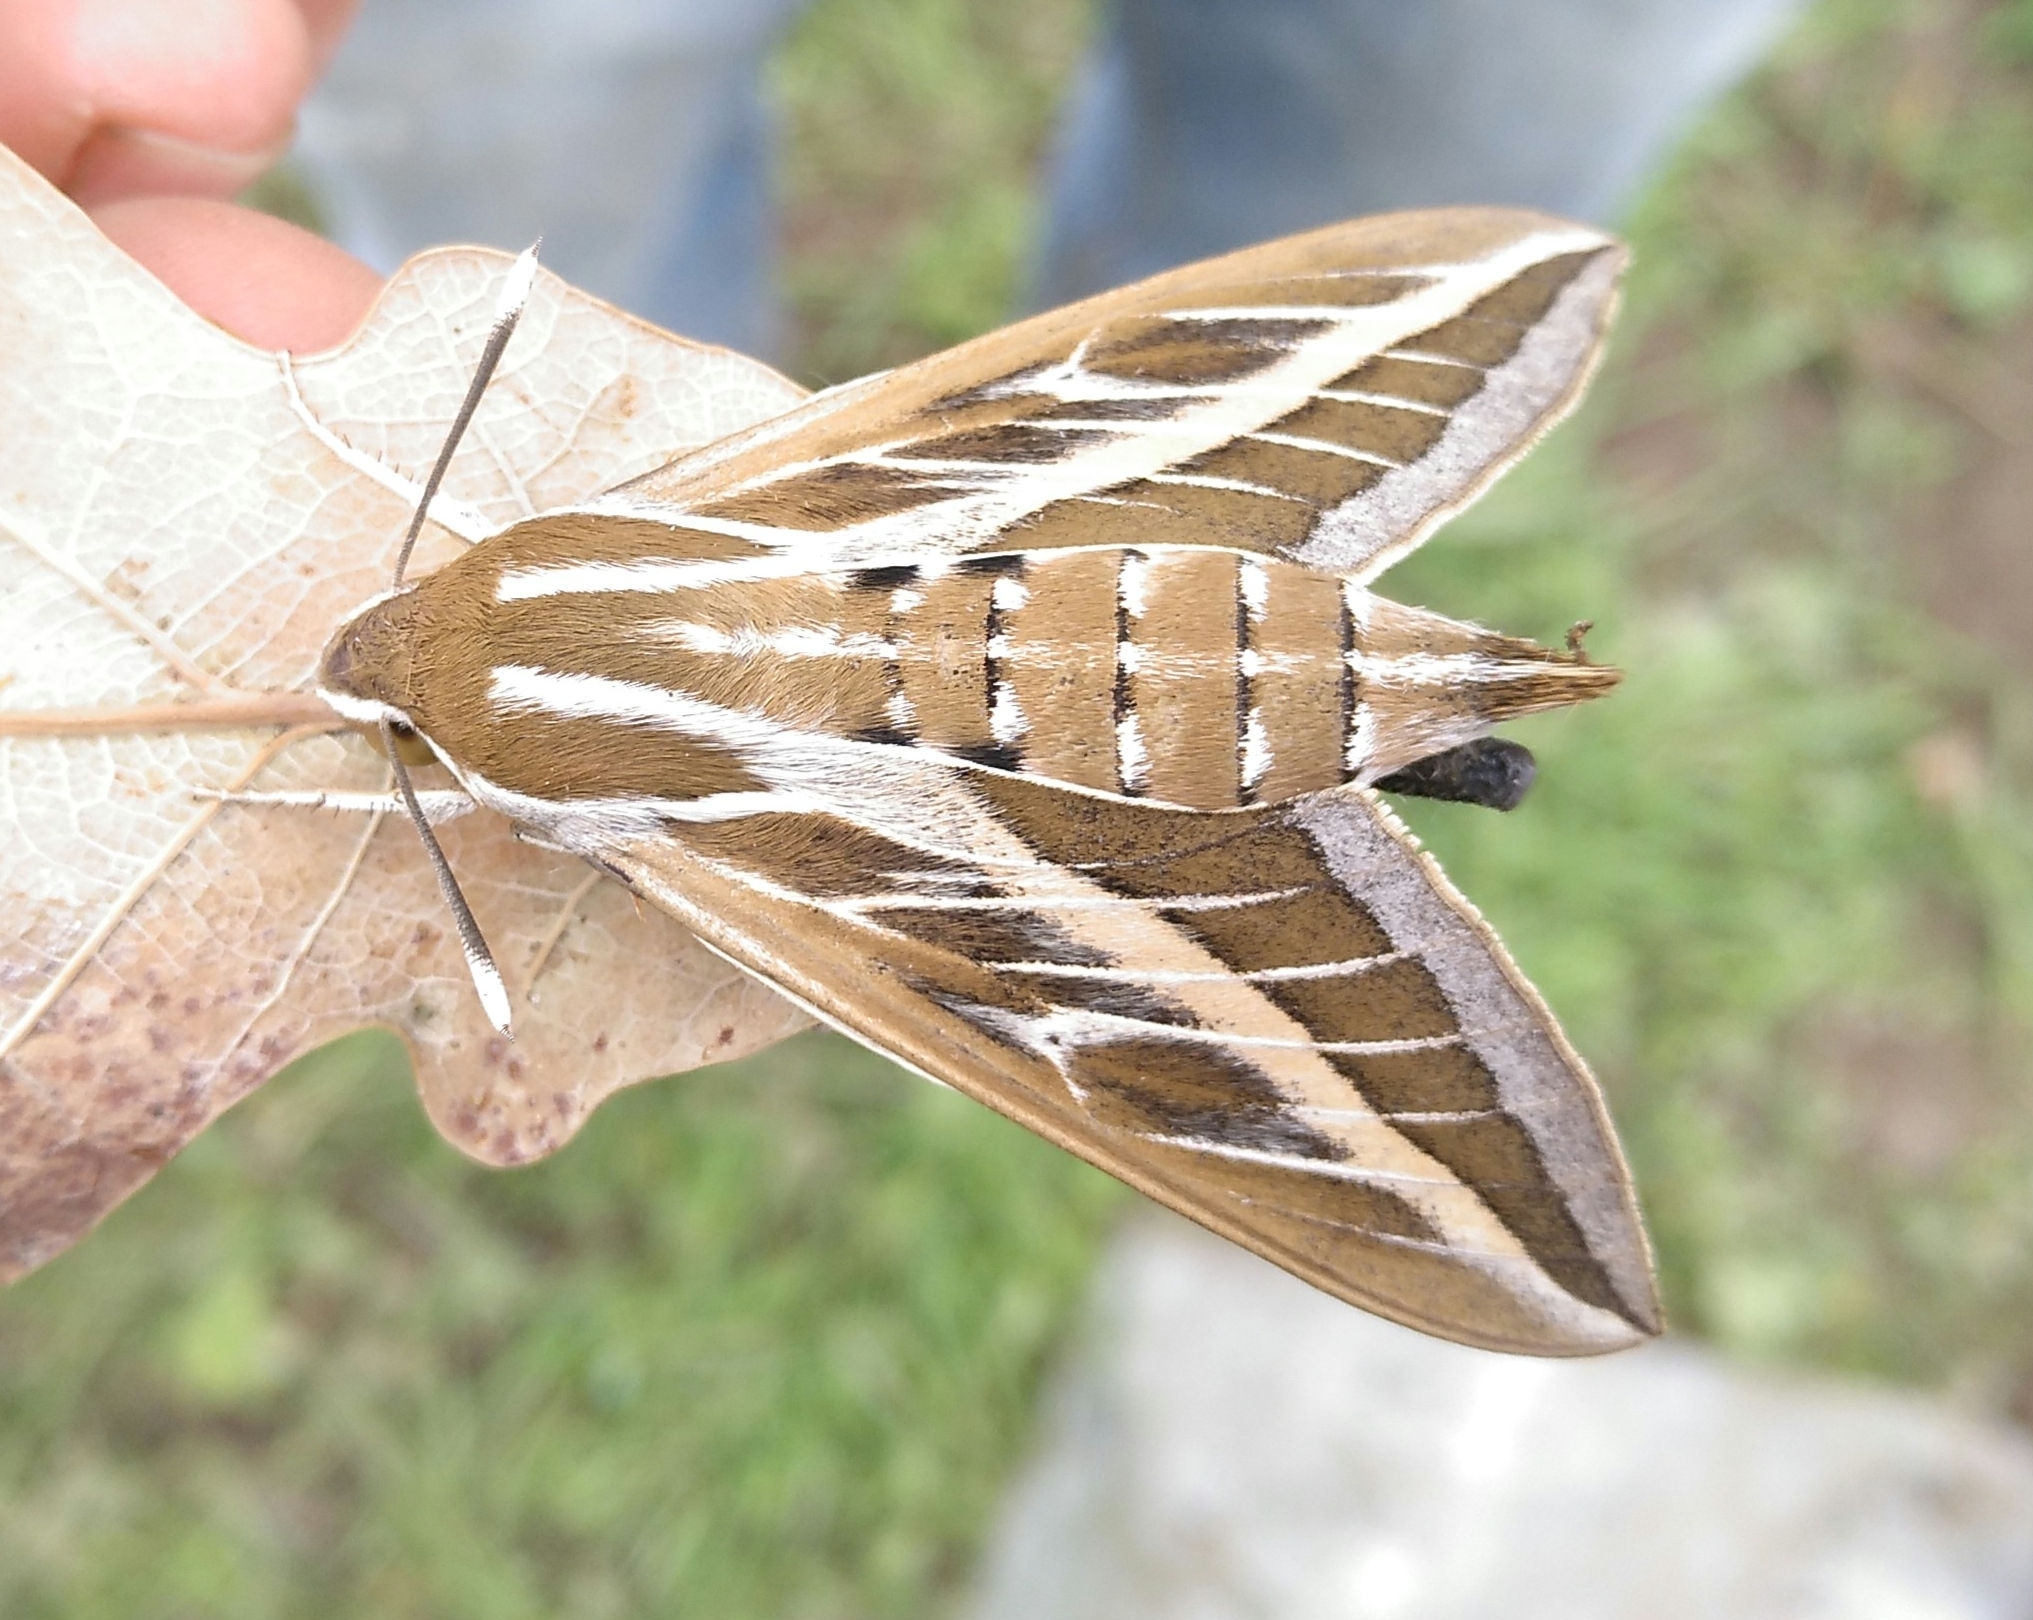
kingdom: Animalia
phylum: Arthropoda
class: Insecta
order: Lepidoptera
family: Sphingidae
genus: Hyles
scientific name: Hyles livornica
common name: Striped hawk-moth
